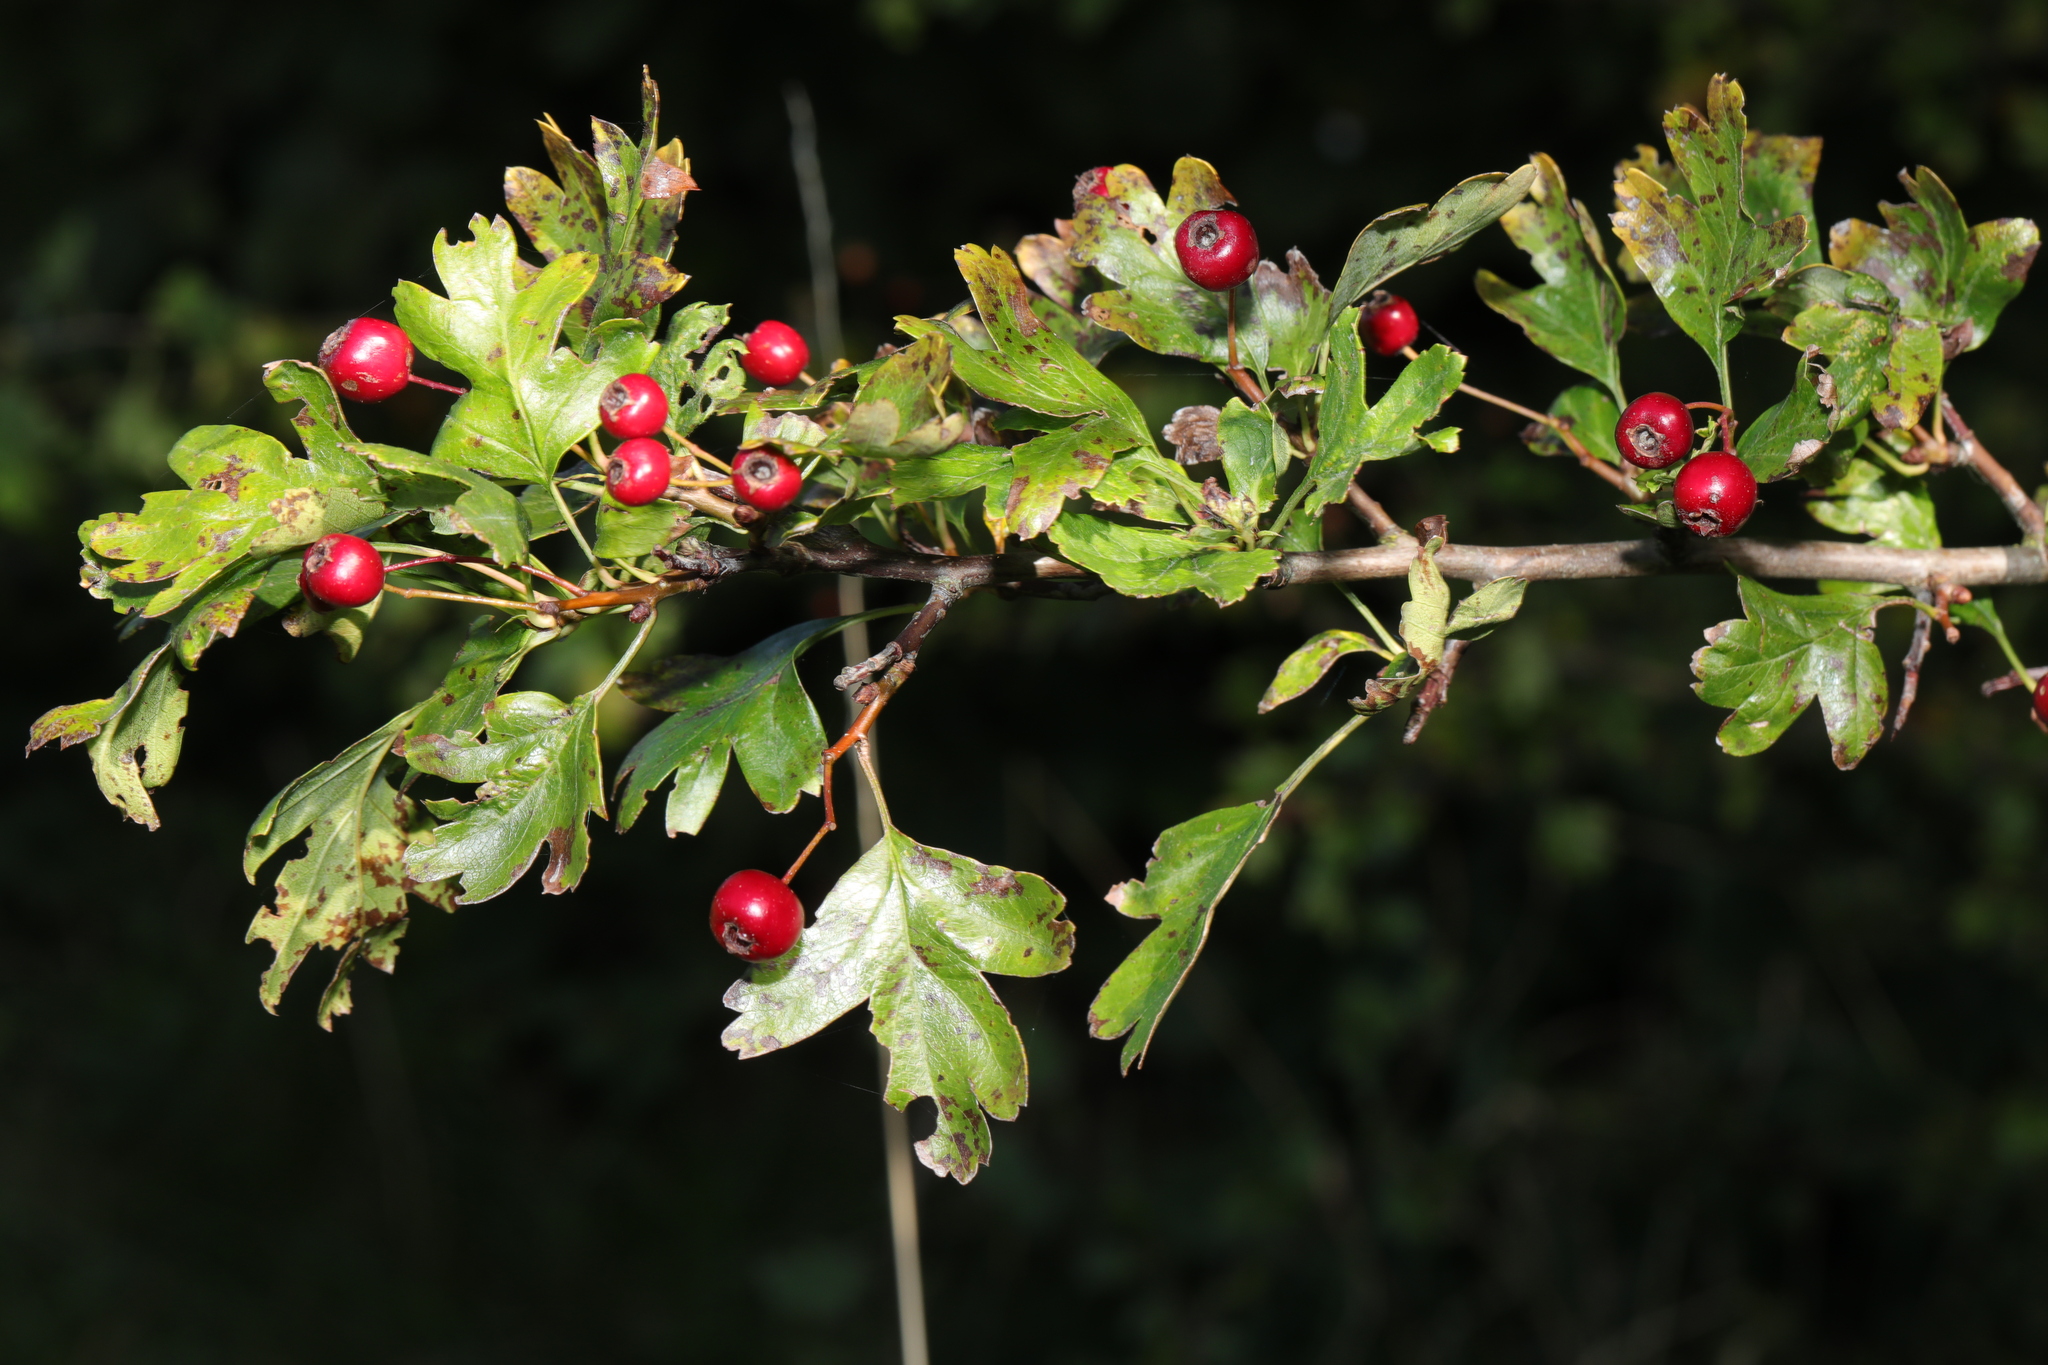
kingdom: Plantae
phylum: Tracheophyta
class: Magnoliopsida
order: Rosales
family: Rosaceae
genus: Crataegus
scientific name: Crataegus monogyna
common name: Hawthorn
